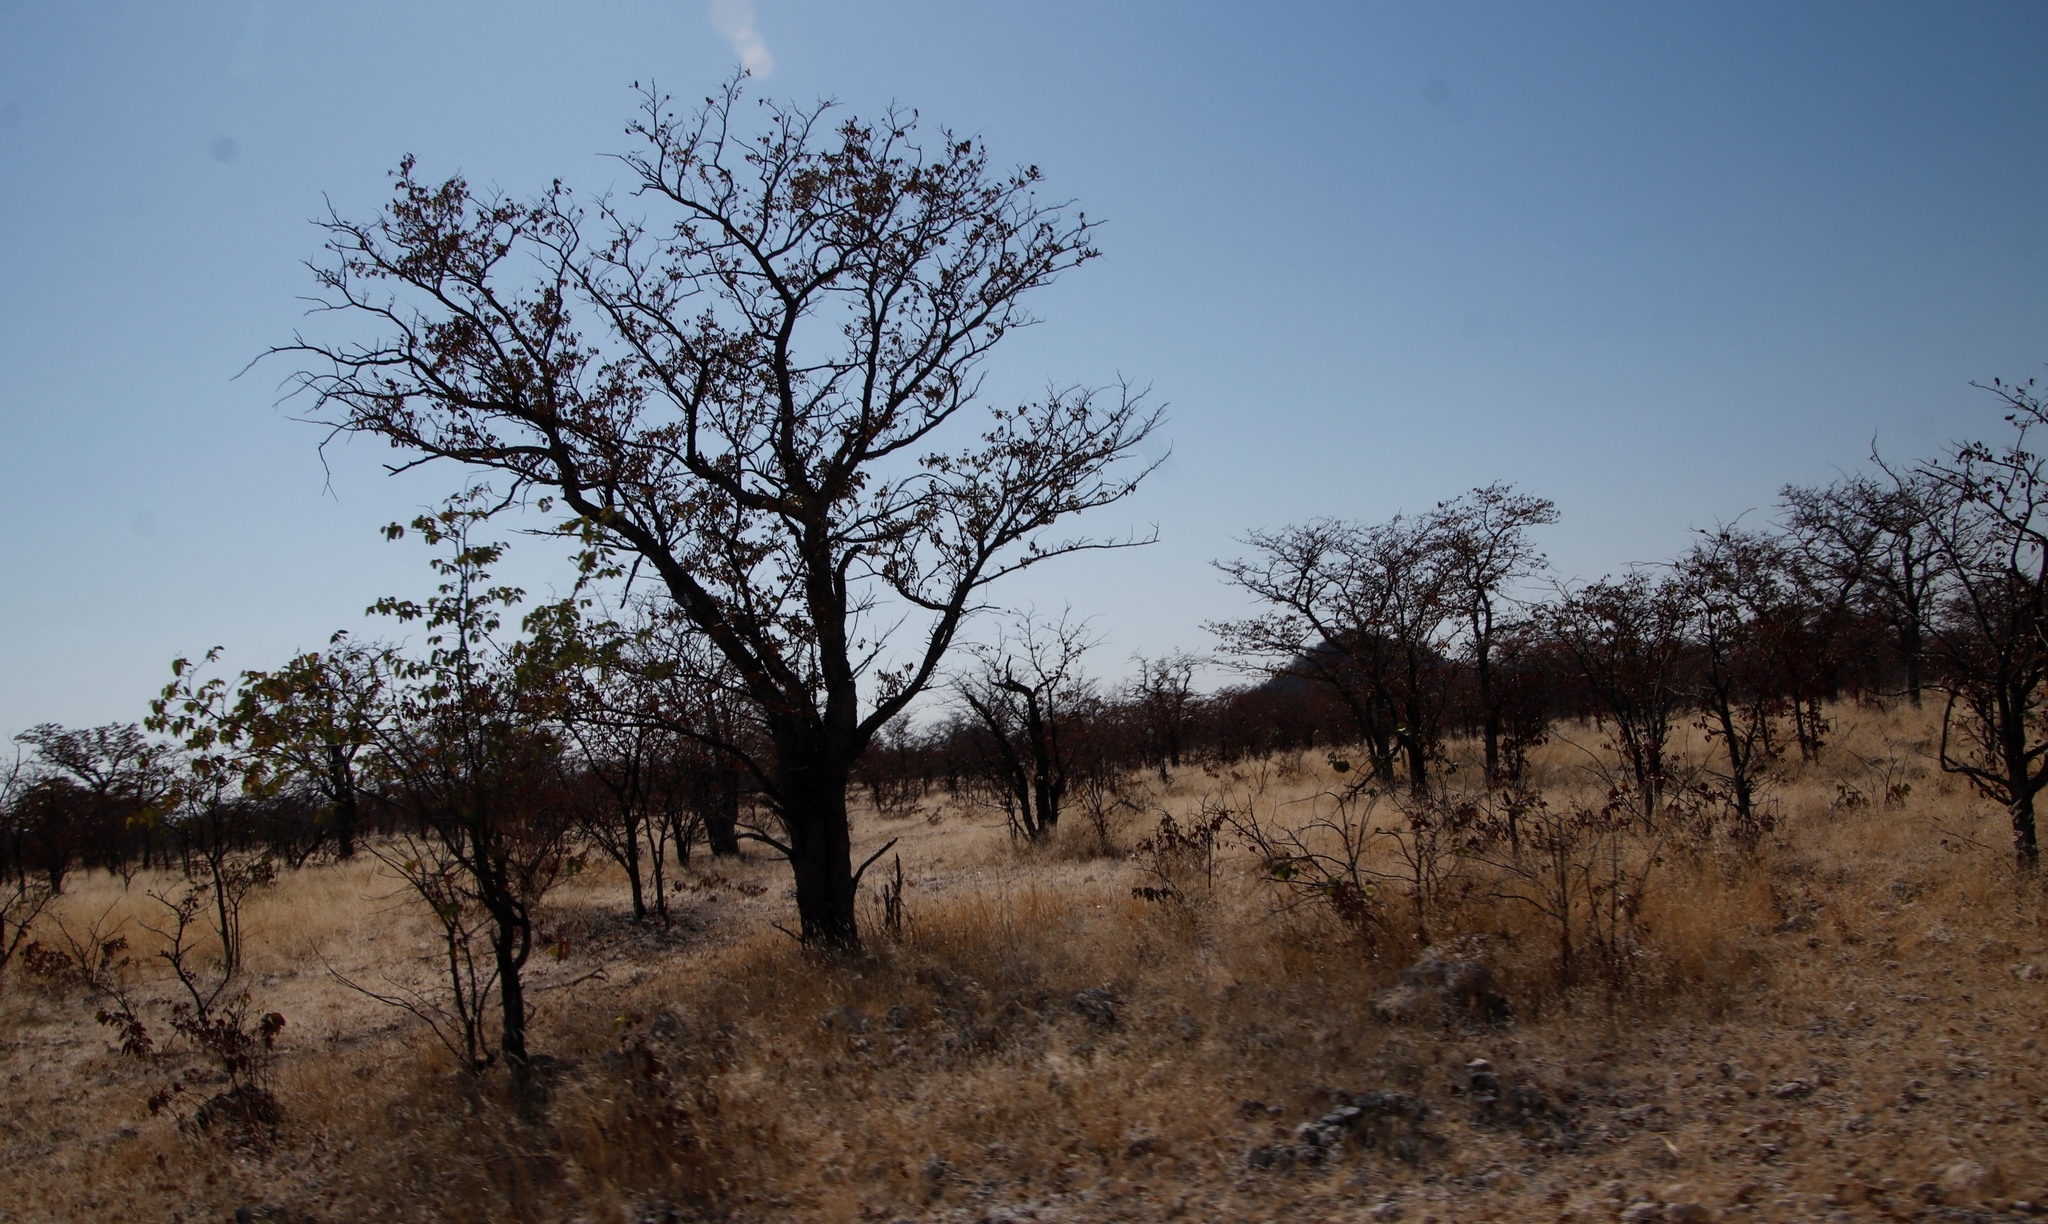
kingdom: Plantae
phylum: Tracheophyta
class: Magnoliopsida
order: Fabales
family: Fabaceae
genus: Colophospermum
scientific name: Colophospermum mopane
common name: Mopane
